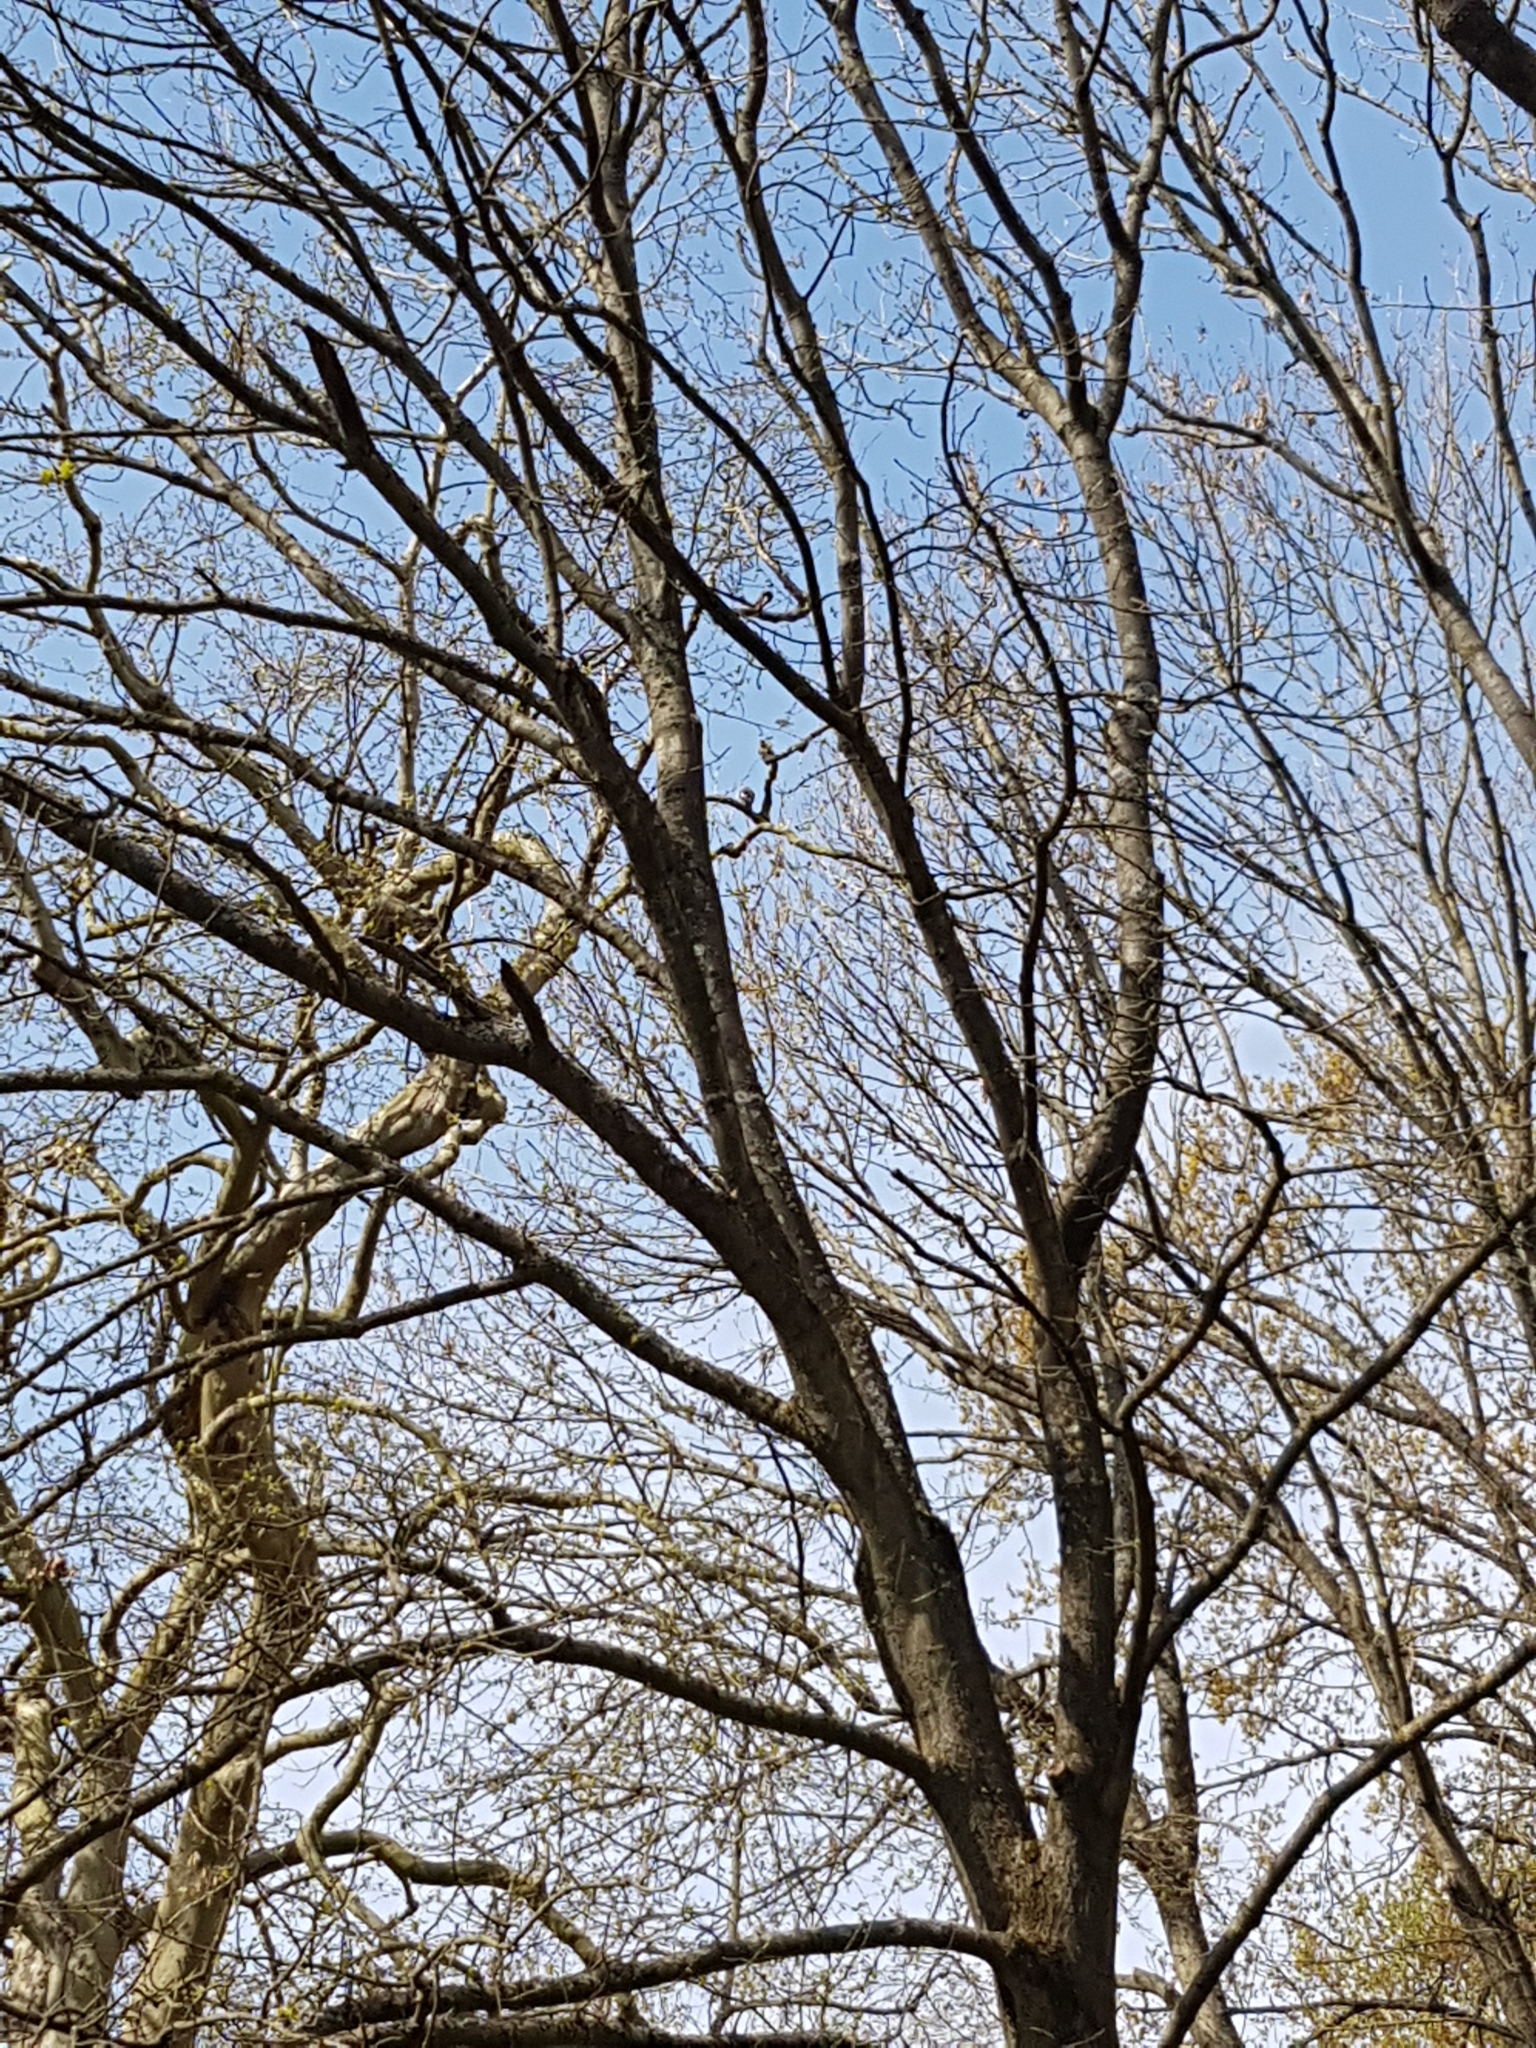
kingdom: Animalia
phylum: Chordata
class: Aves
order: Passeriformes
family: Corvidae
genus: Garrulus
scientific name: Garrulus glandarius
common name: Eurasian jay
